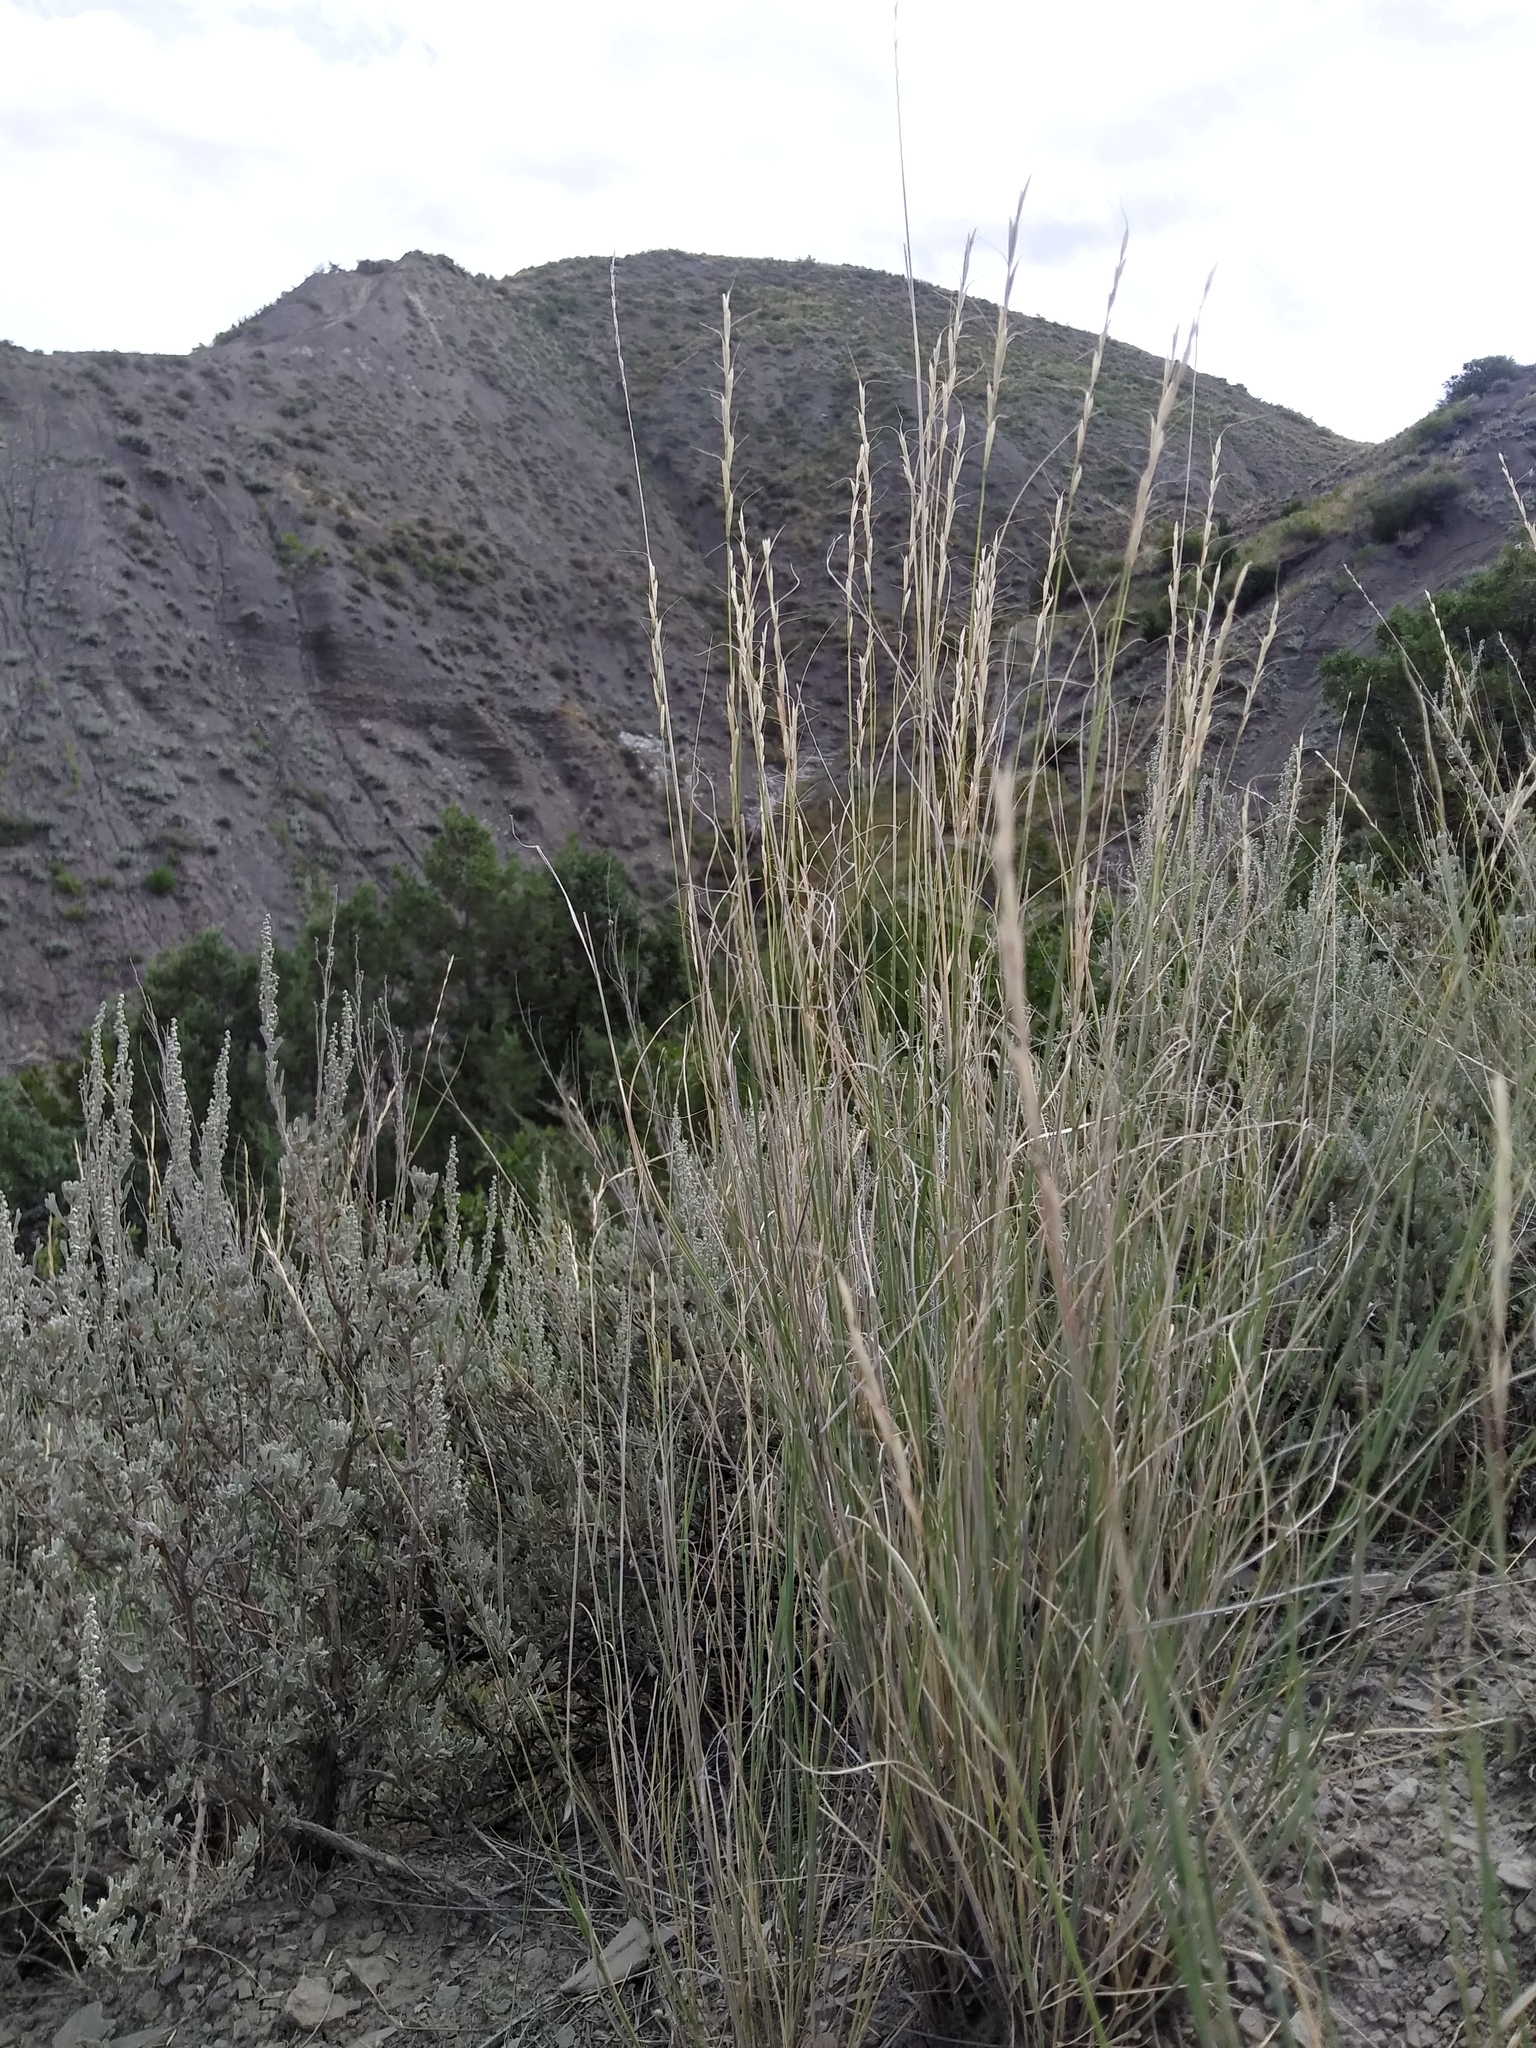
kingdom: Plantae
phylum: Tracheophyta
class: Liliopsida
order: Poales
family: Poaceae
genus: Pseudoroegneria
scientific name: Pseudoroegneria spicata
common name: Bluebunch wheatgrass
